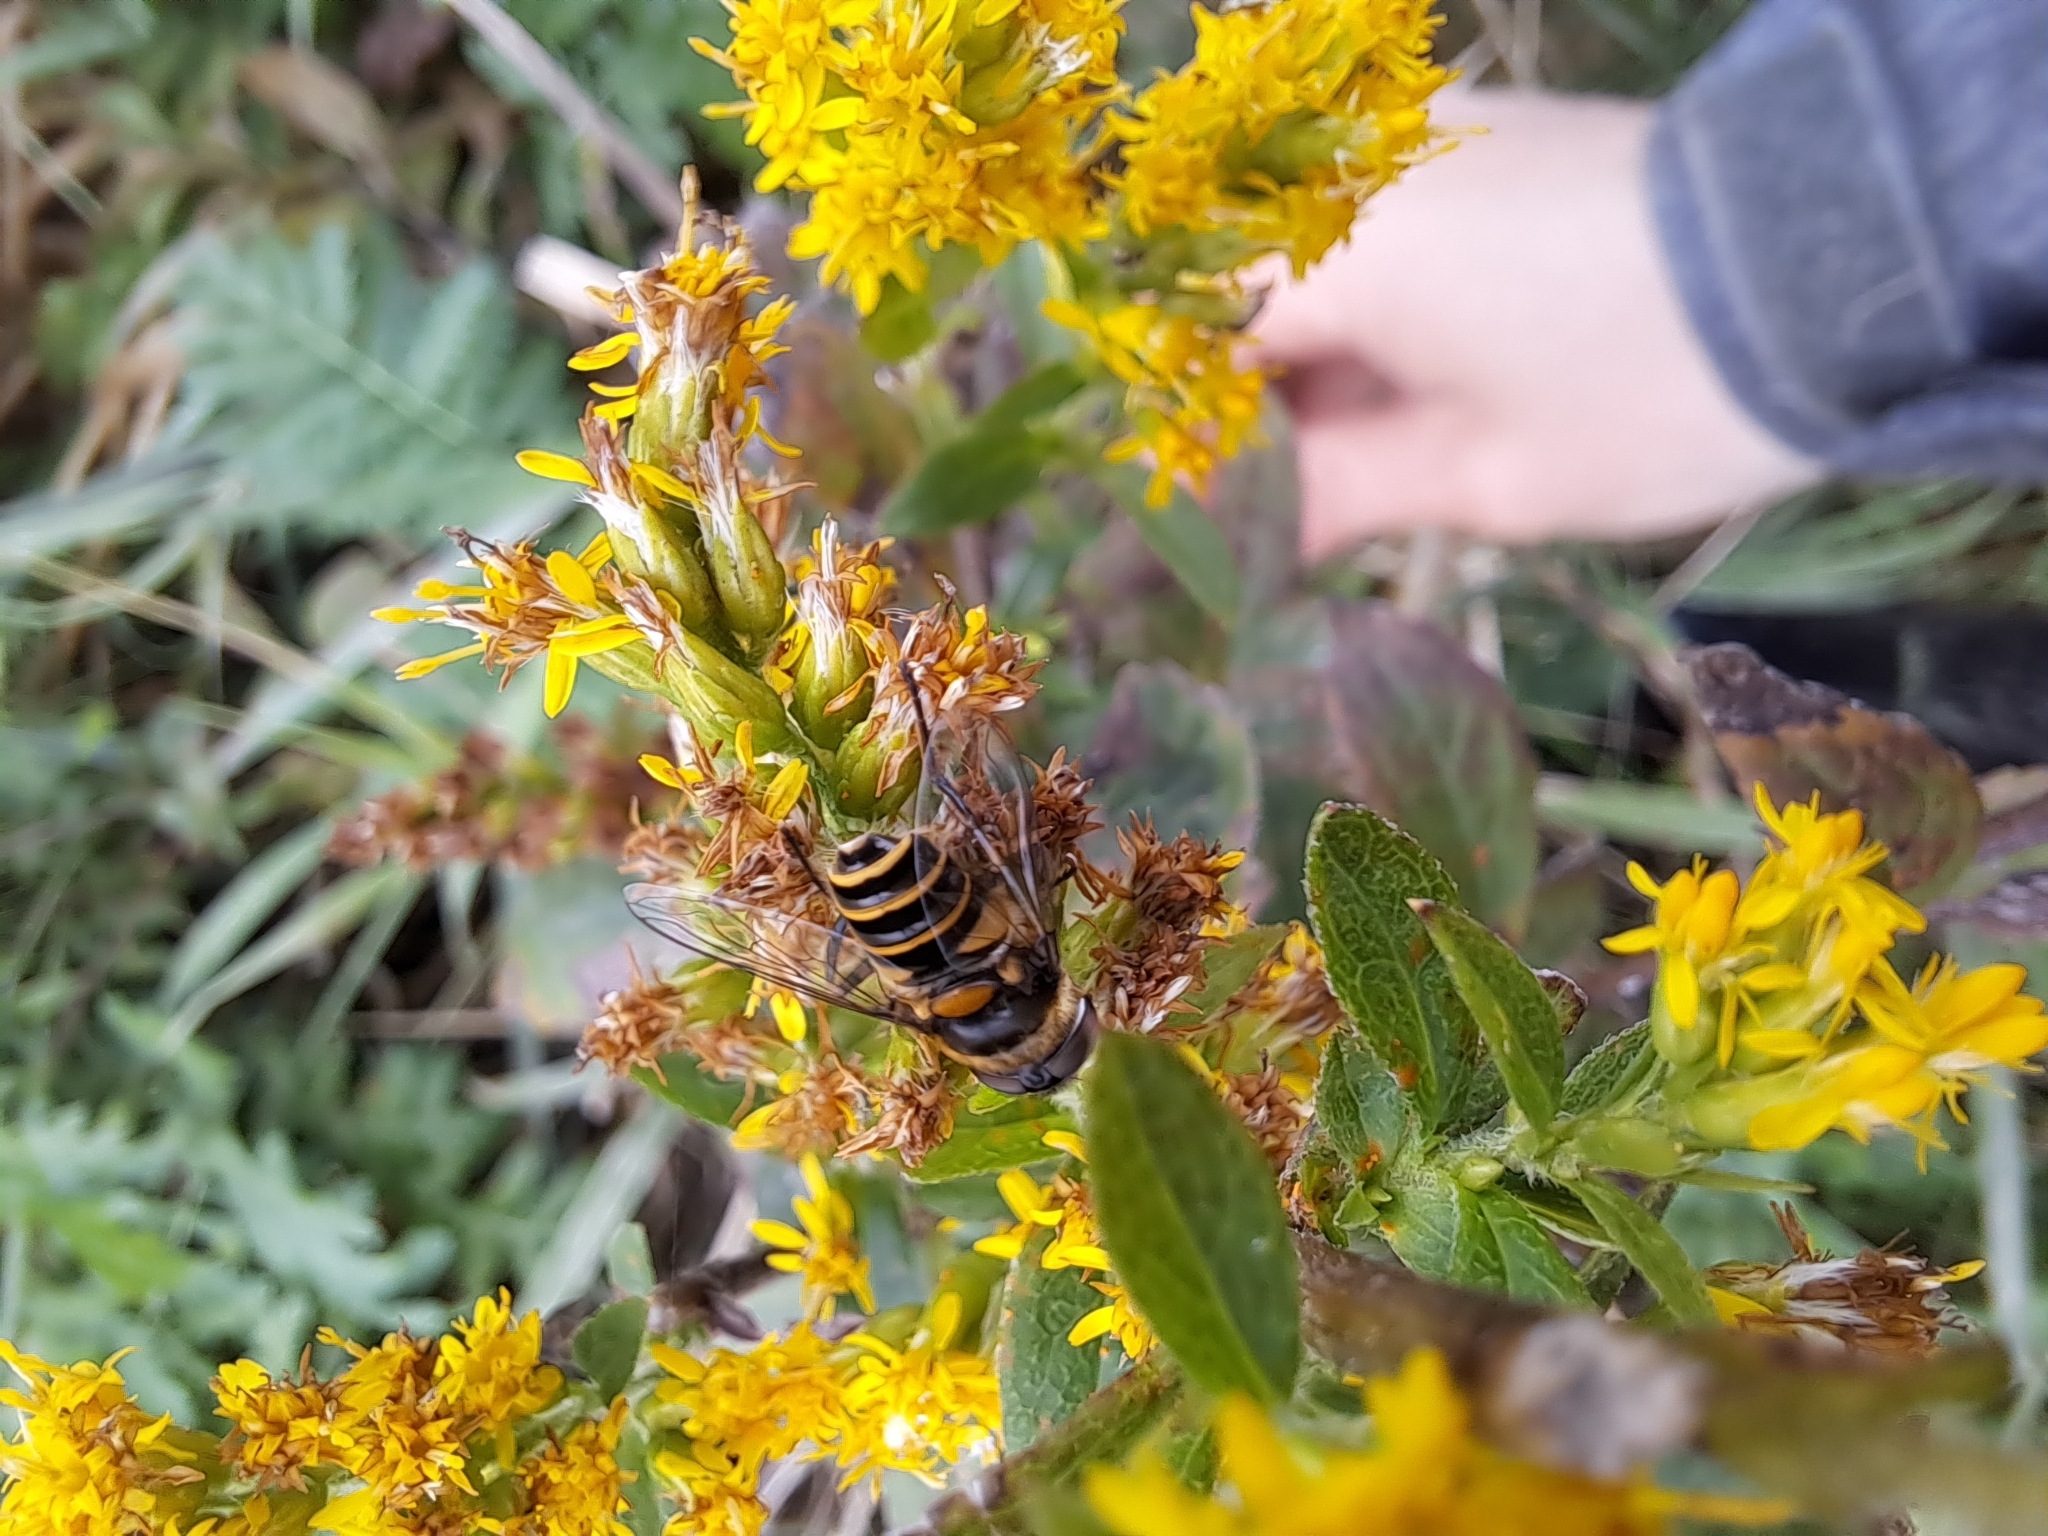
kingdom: Animalia
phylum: Arthropoda
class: Insecta
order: Diptera
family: Syrphidae
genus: Eristalis
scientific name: Eristalis transversa
